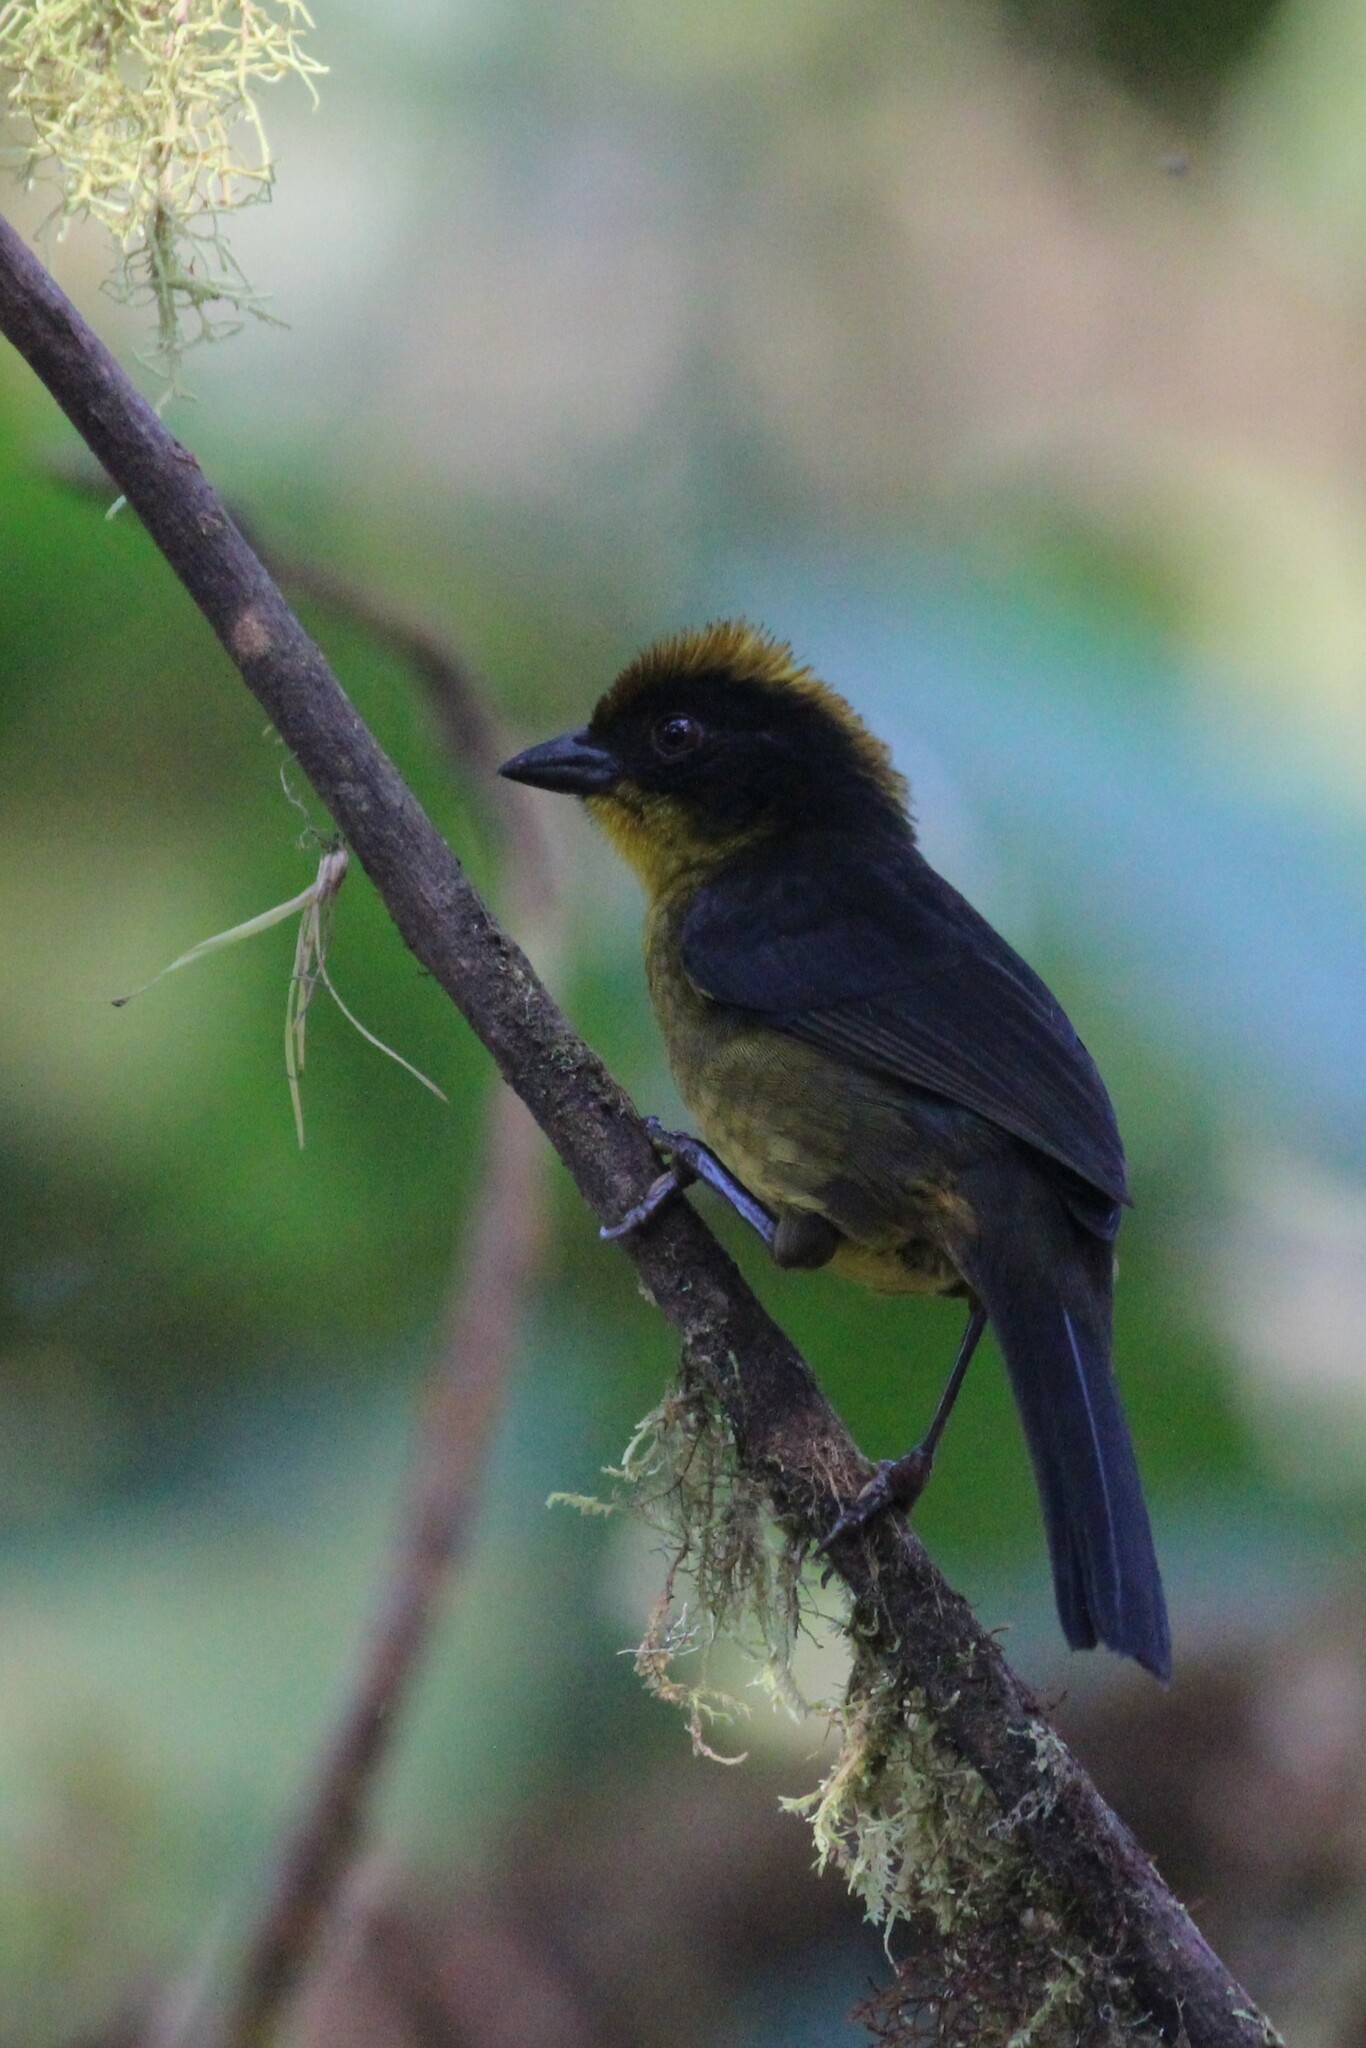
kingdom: Animalia
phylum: Chordata
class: Aves
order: Passeriformes
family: Passerellidae
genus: Atlapetes
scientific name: Atlapetes tricolor
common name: Tricolored brushfinch
